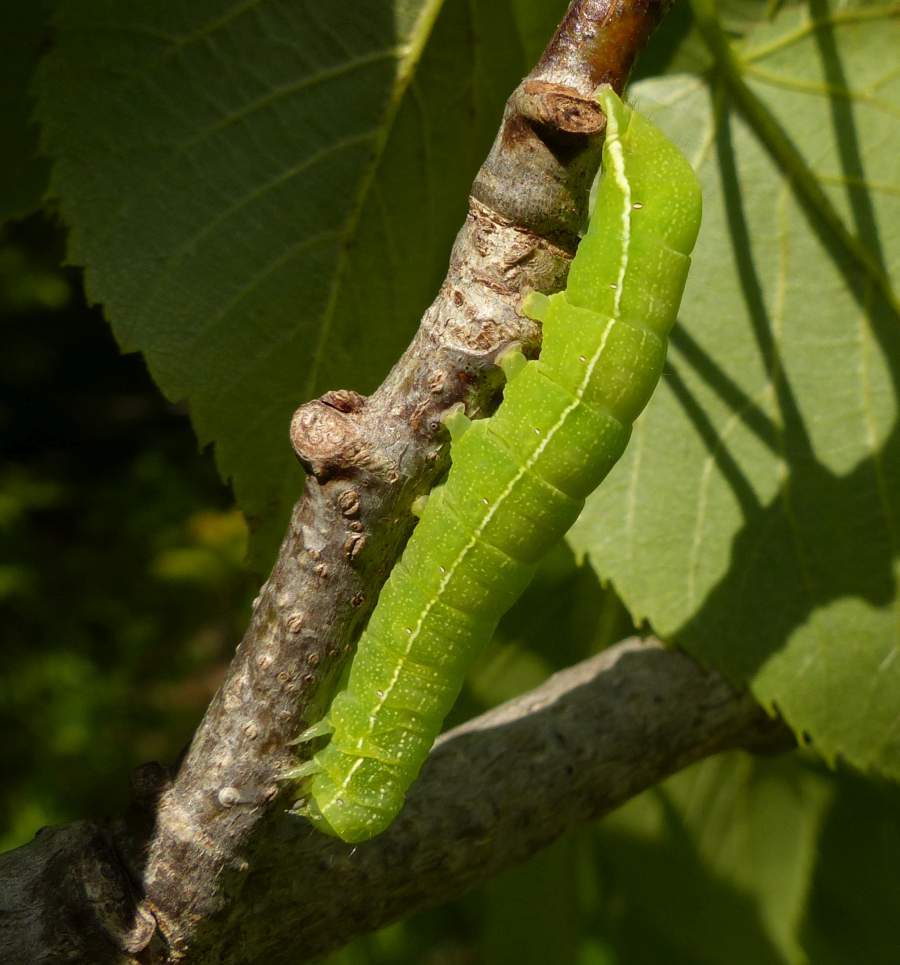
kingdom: Animalia
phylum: Arthropoda
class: Insecta
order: Lepidoptera
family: Noctuidae
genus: Orthosia
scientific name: Orthosia hibisci
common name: Green fruitworm
